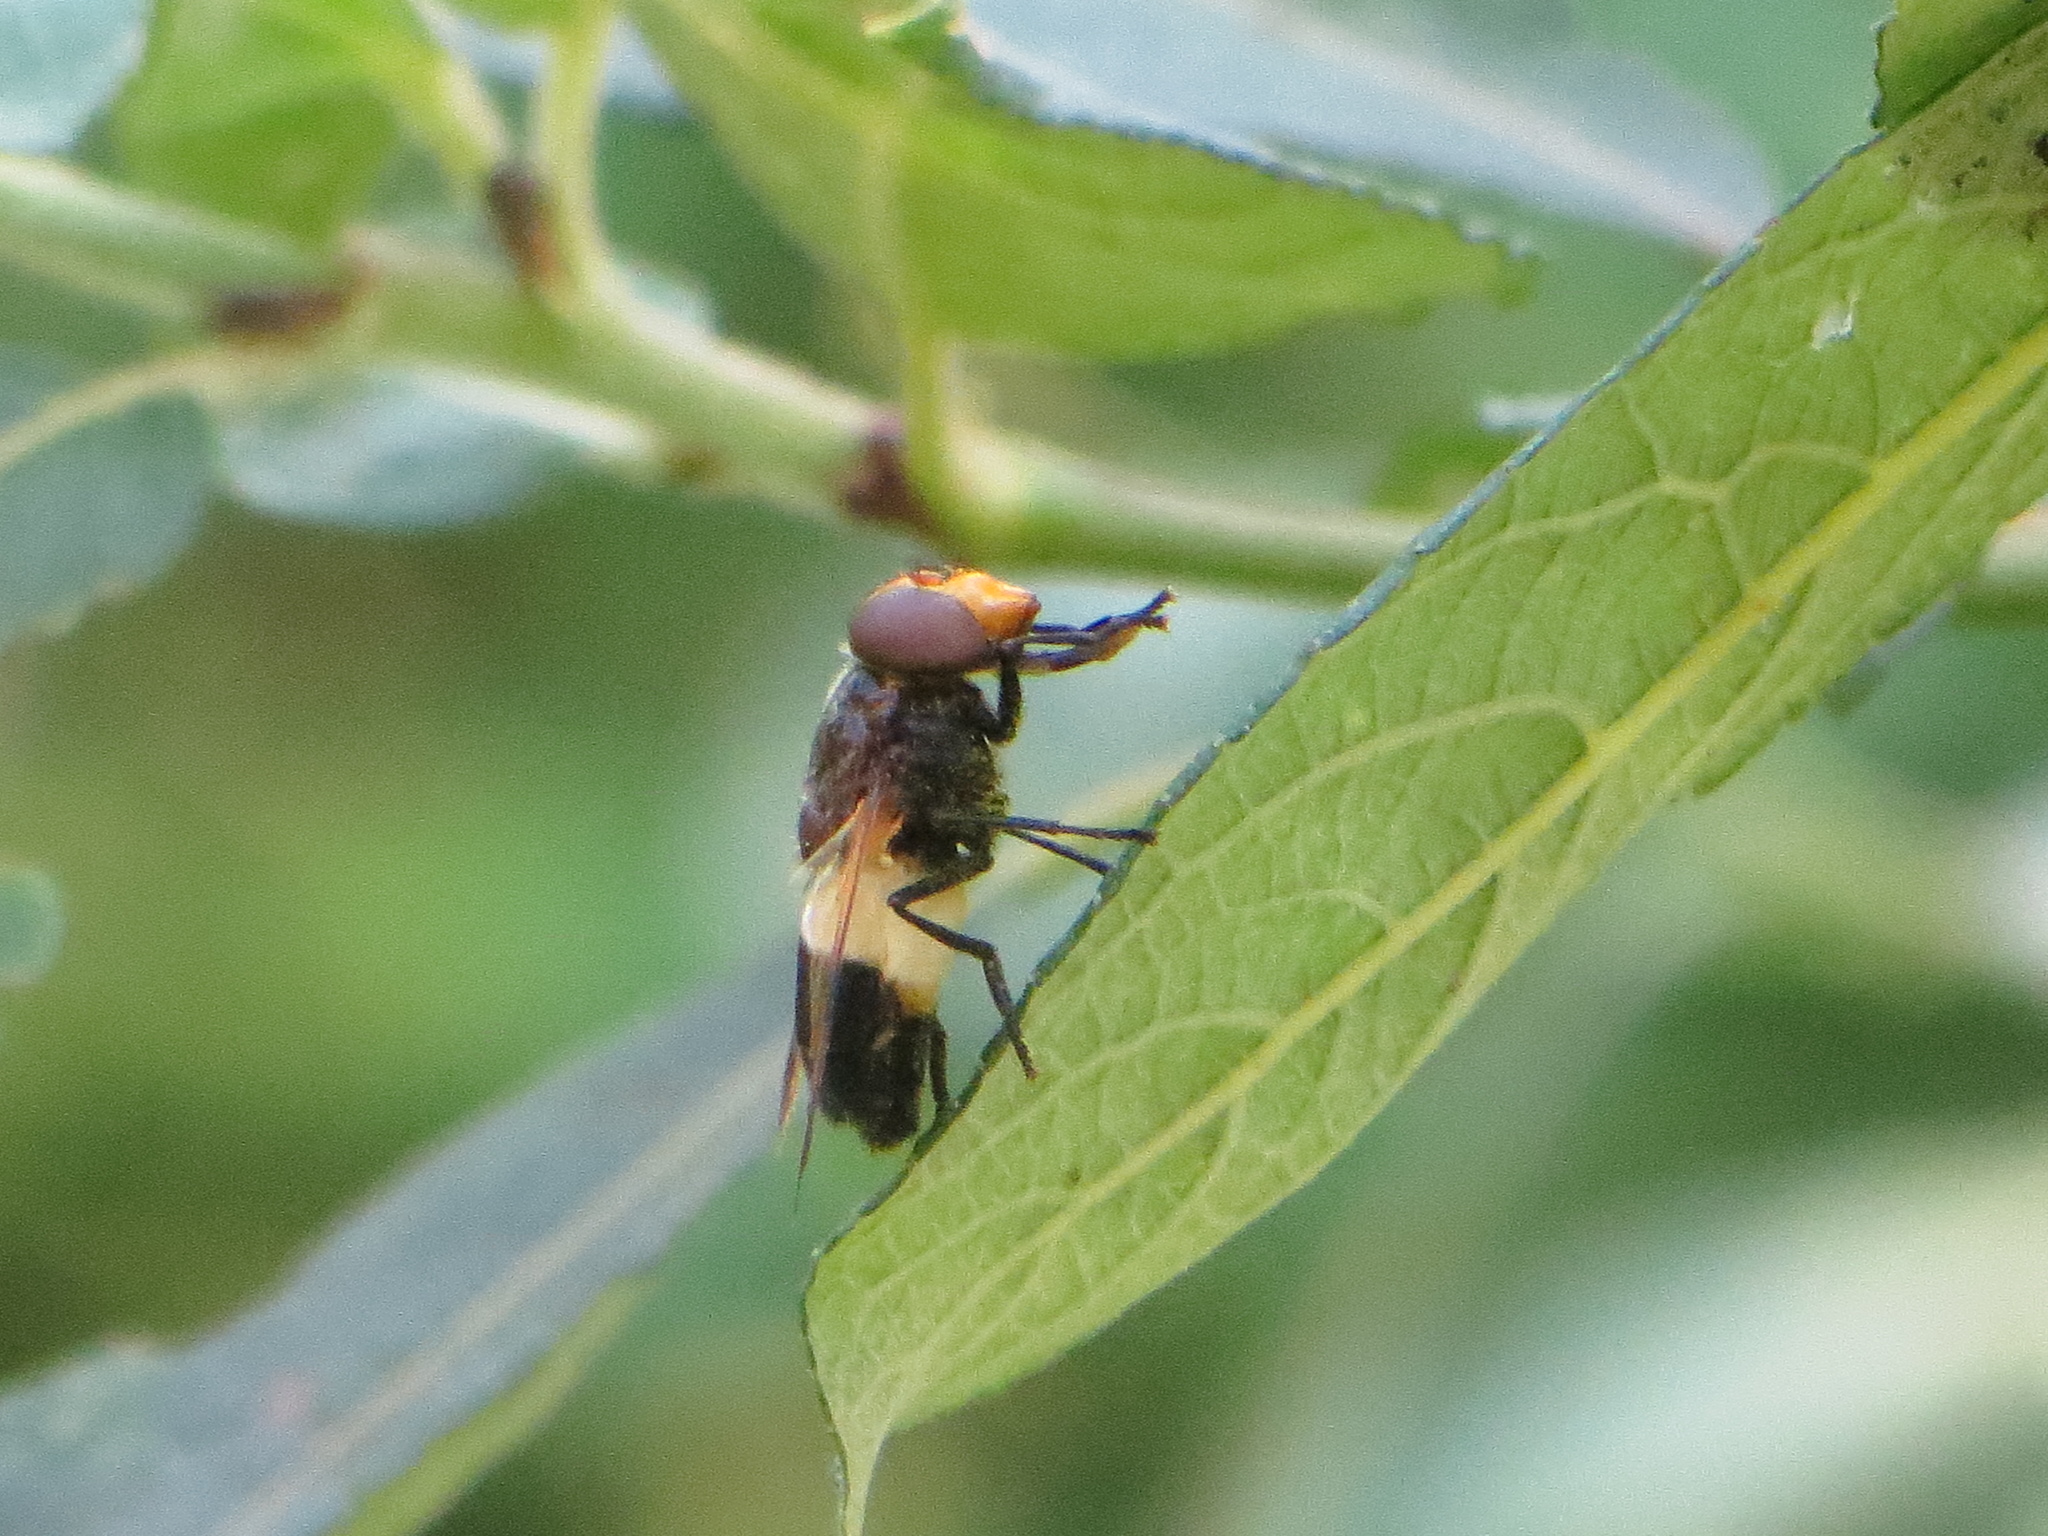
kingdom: Animalia
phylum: Arthropoda
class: Insecta
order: Diptera
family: Syrphidae
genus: Volucella
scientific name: Volucella pellucens
